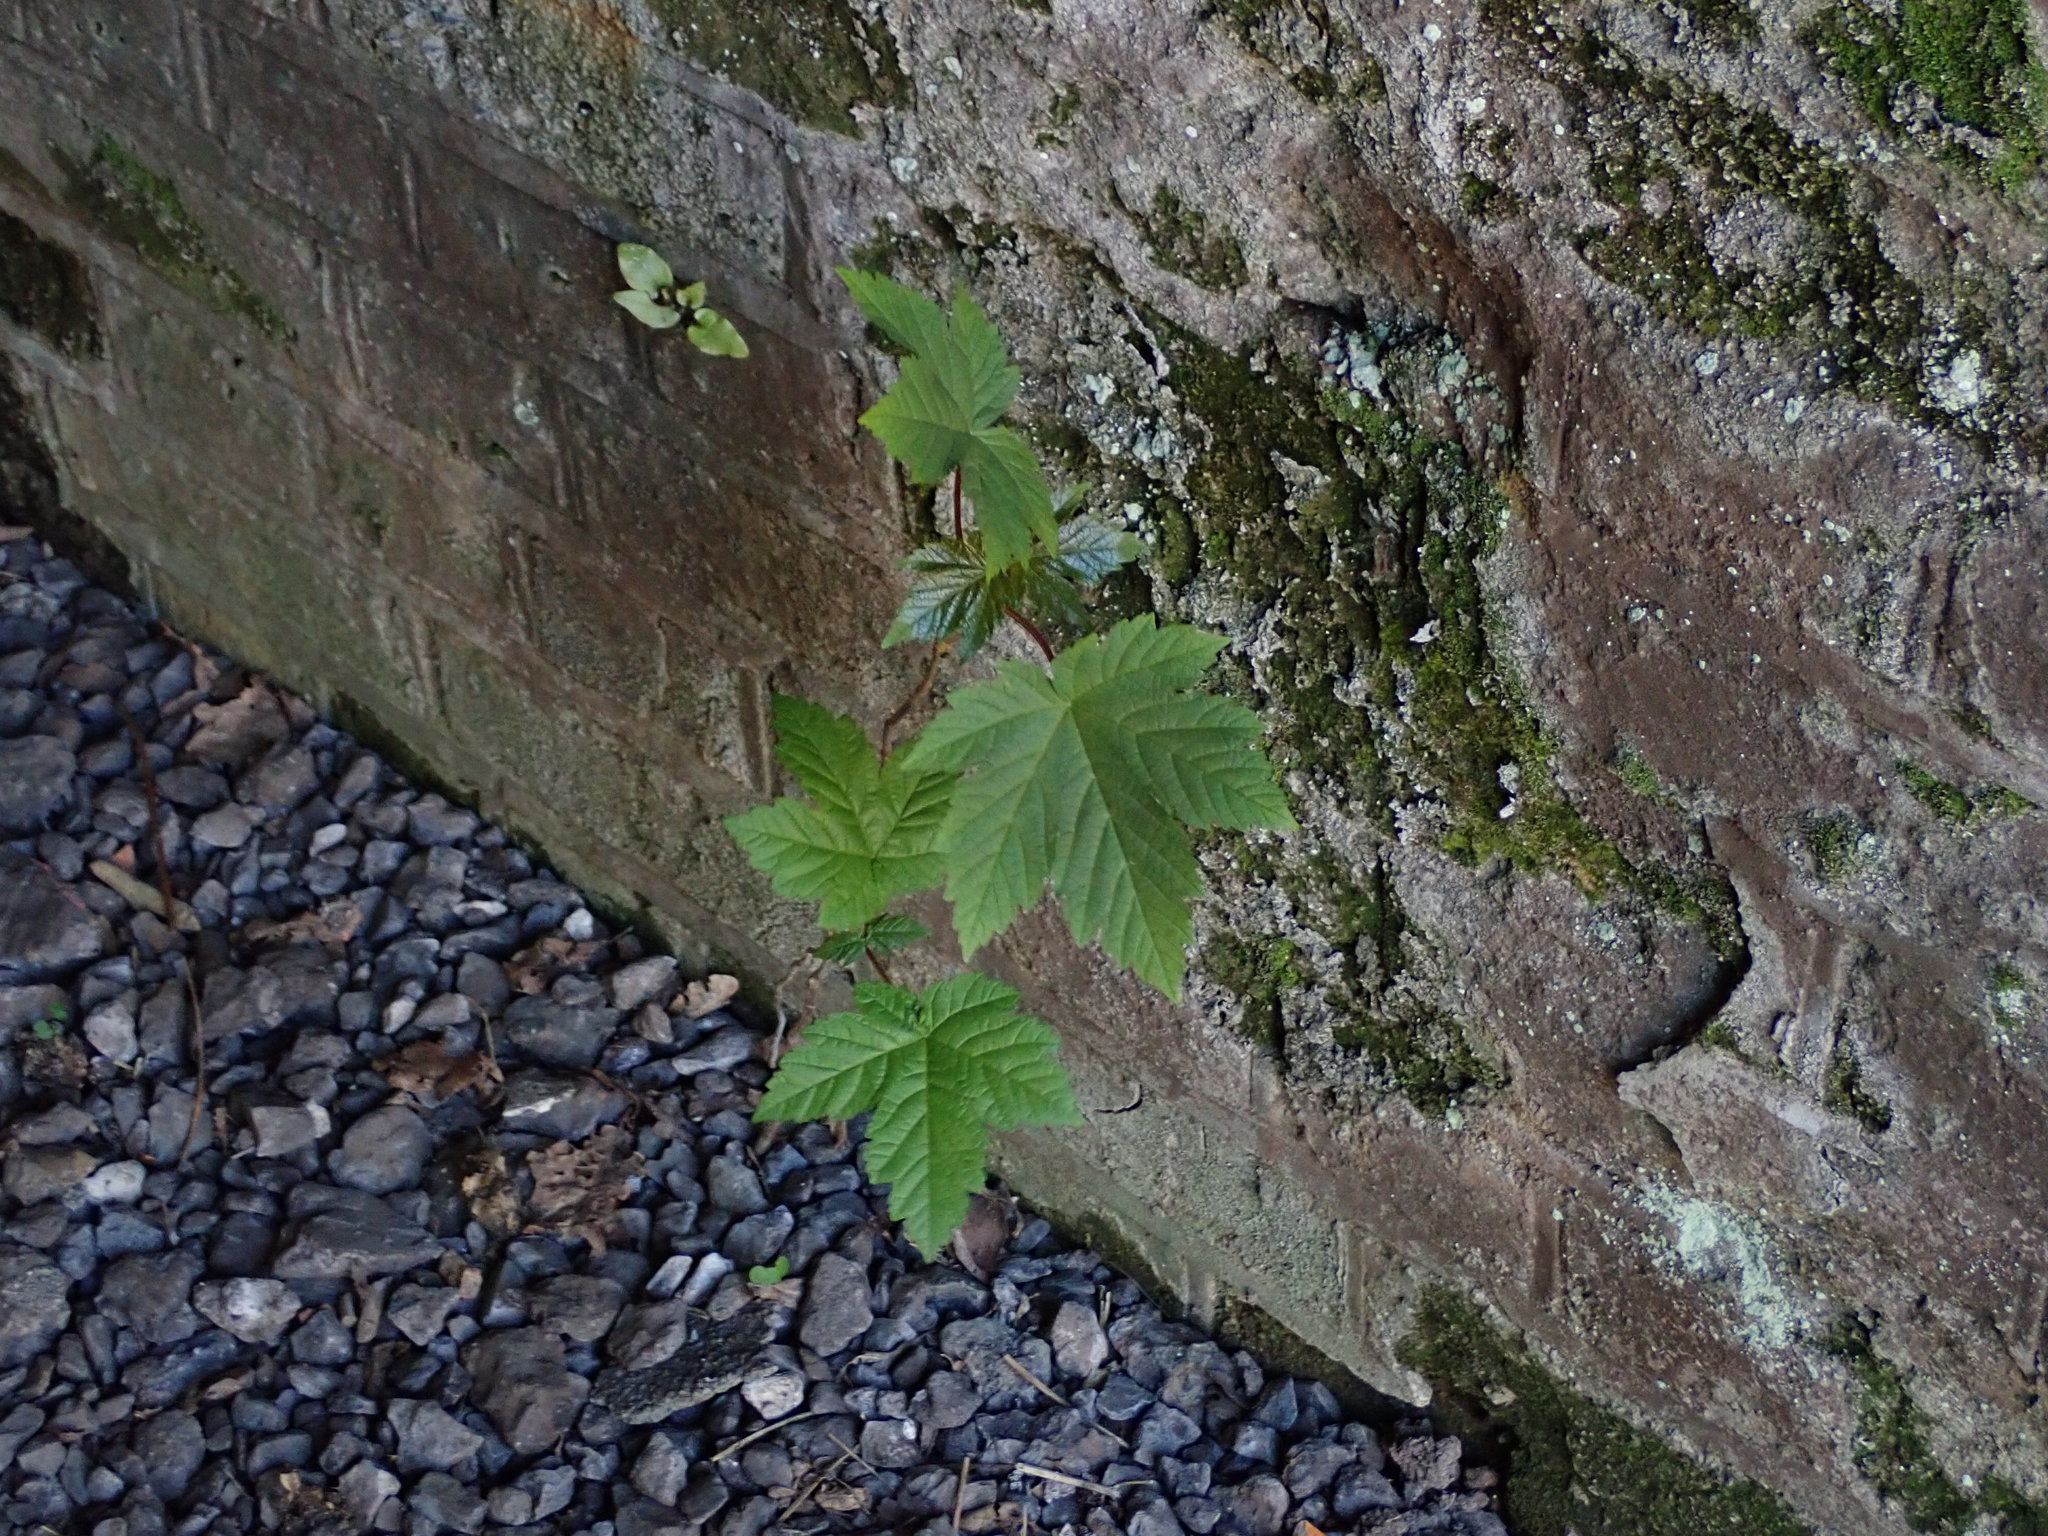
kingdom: Plantae
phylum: Tracheophyta
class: Magnoliopsida
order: Sapindales
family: Sapindaceae
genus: Acer
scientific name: Acer pseudoplatanus
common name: Sycamore
